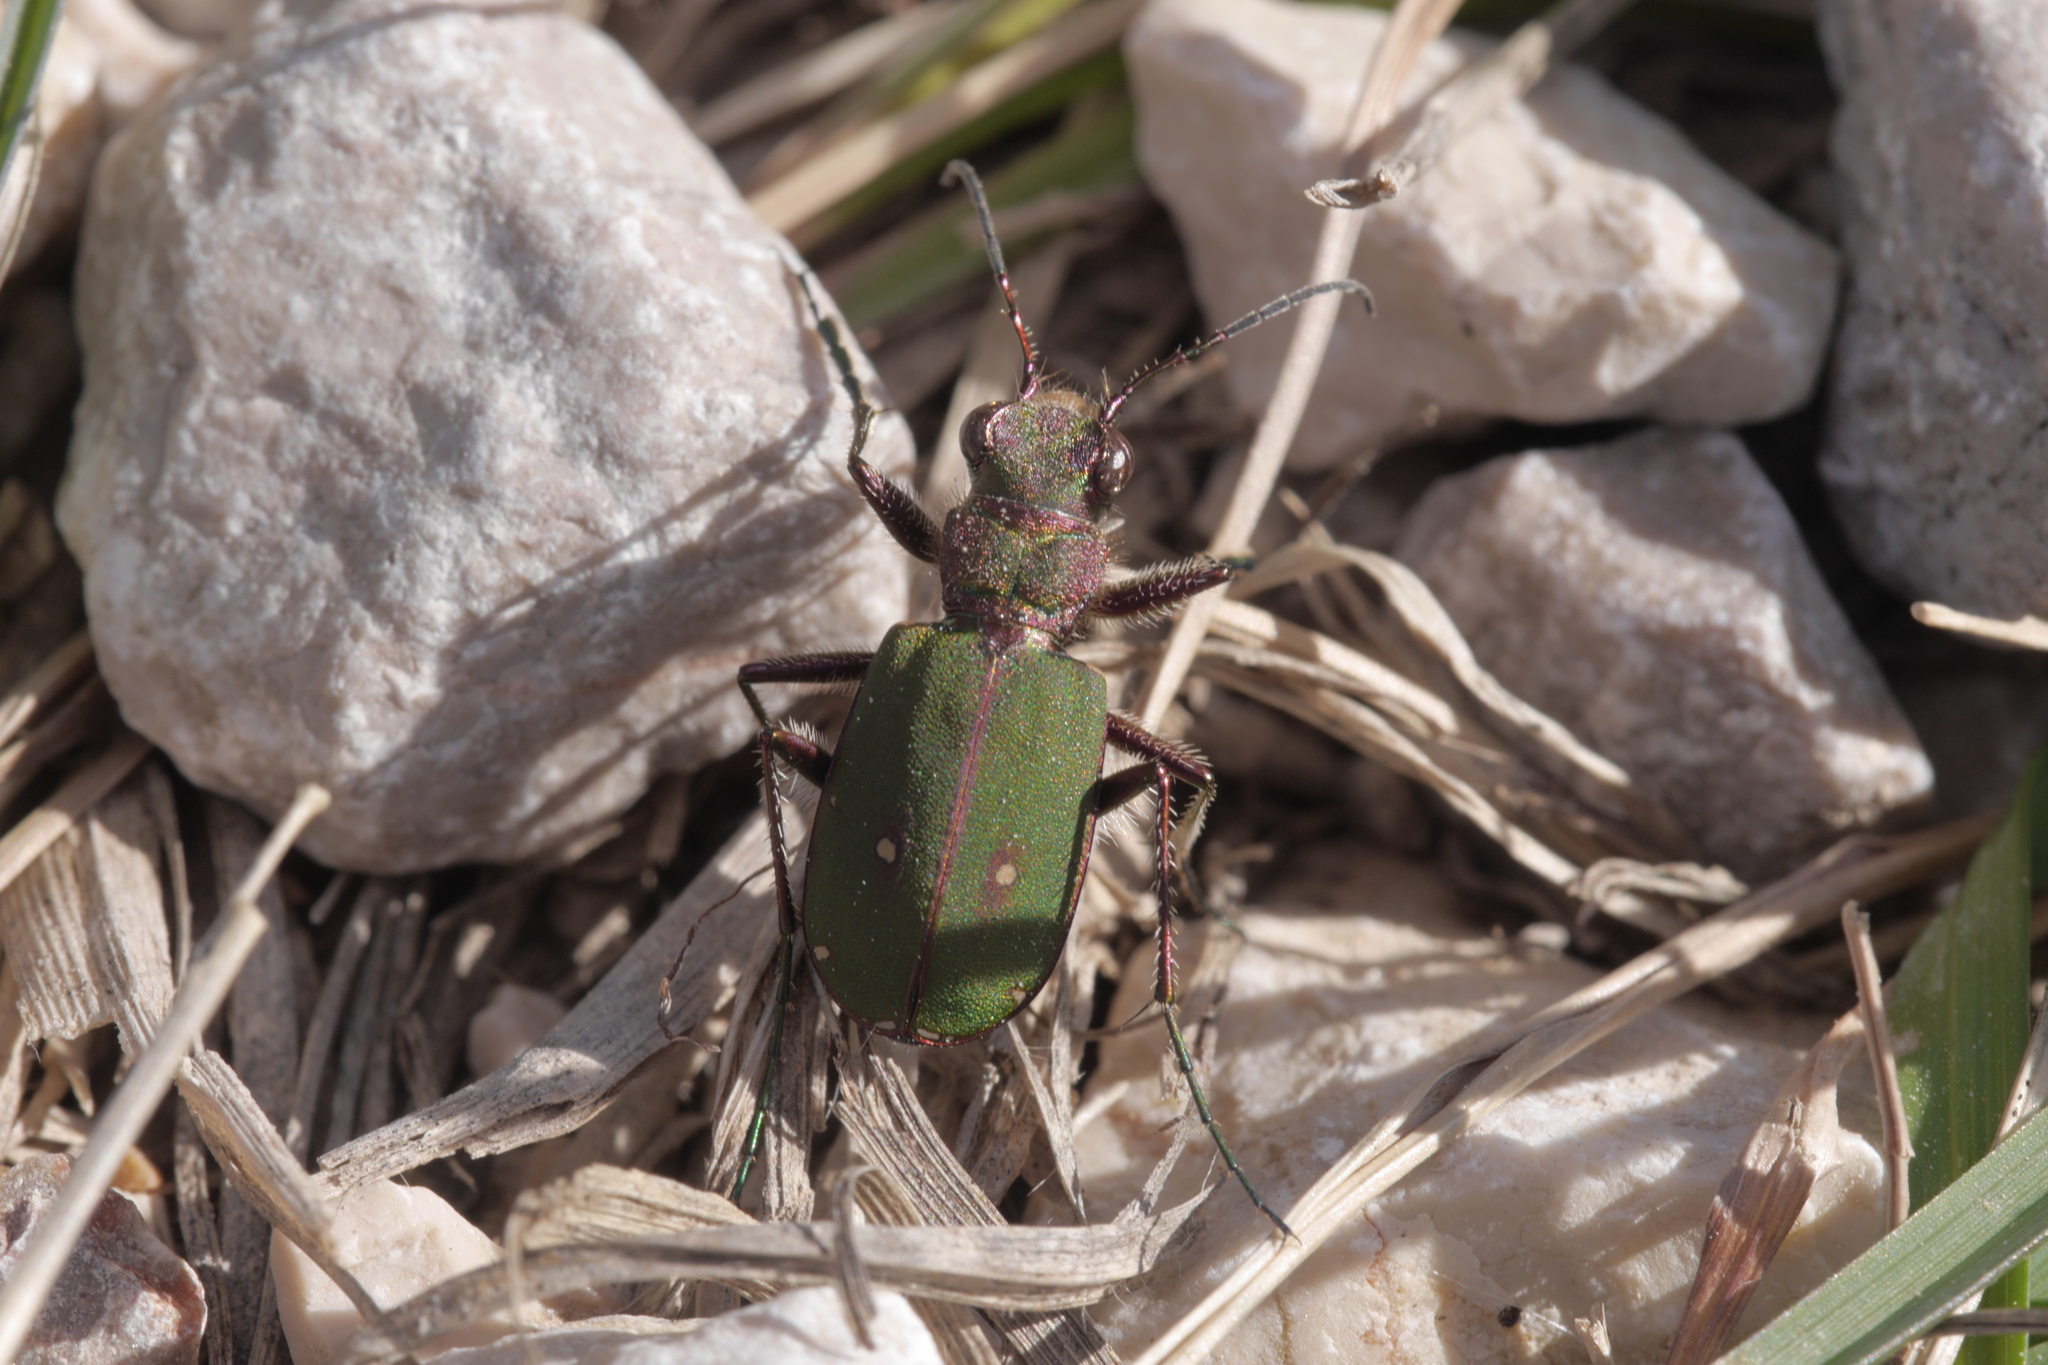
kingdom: Animalia
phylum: Arthropoda
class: Insecta
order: Coleoptera
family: Carabidae
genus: Cicindela
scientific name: Cicindela campestris
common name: Common tiger beetle
